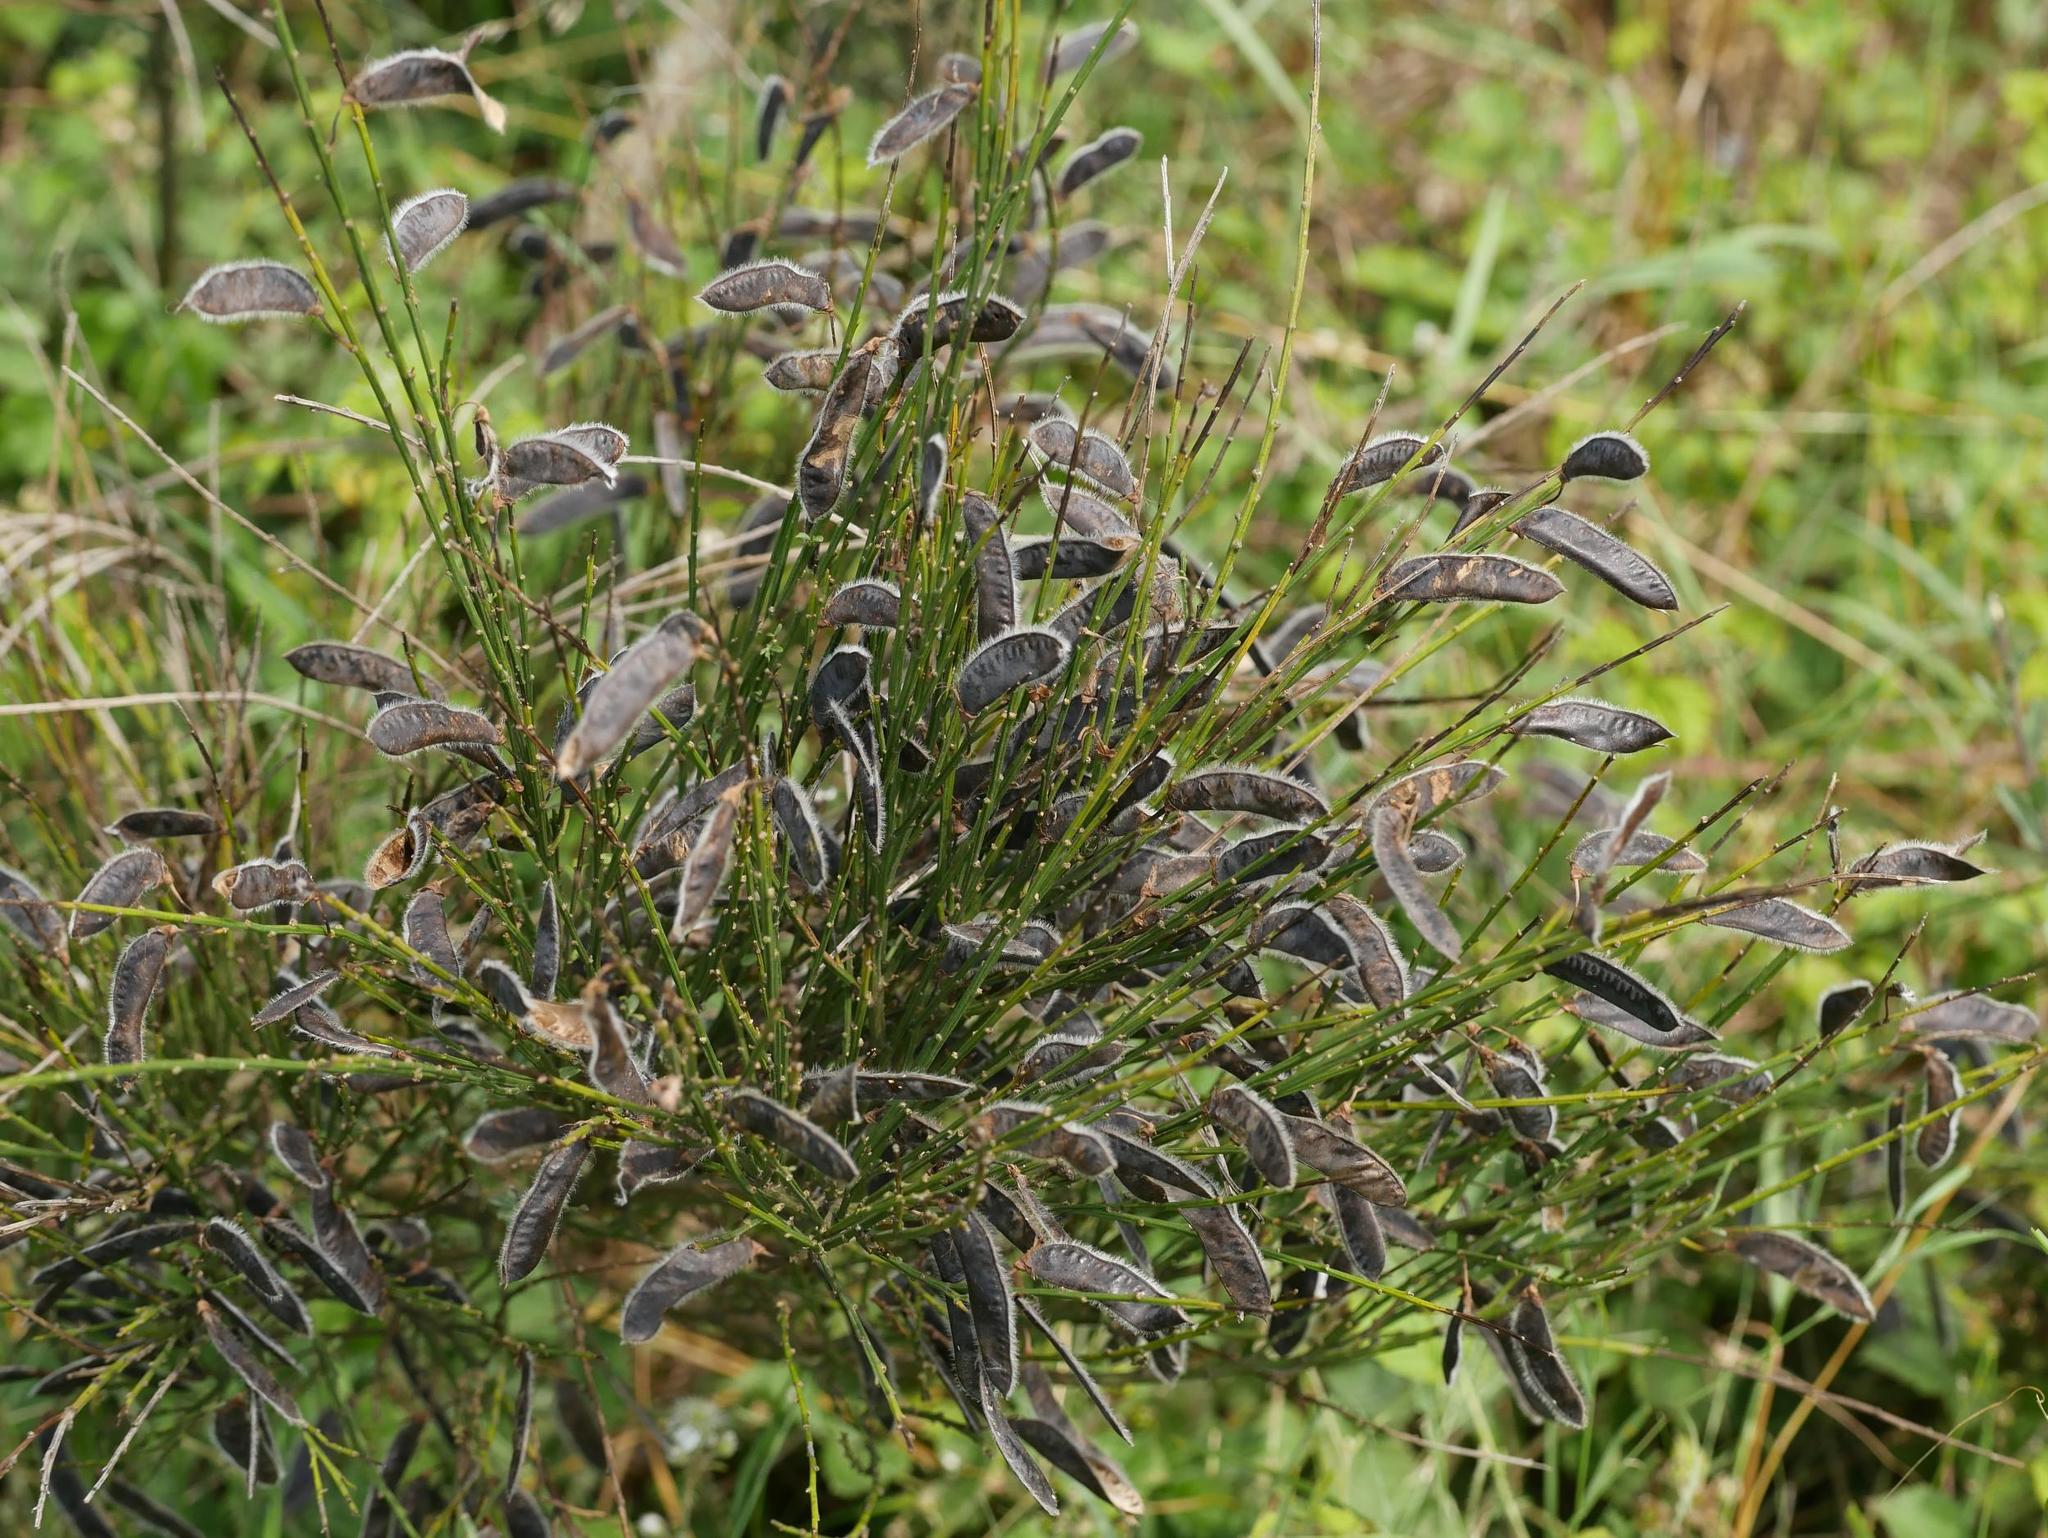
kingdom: Plantae
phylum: Tracheophyta
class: Magnoliopsida
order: Fabales
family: Fabaceae
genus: Cytisus
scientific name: Cytisus scoparius
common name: Scotch broom
